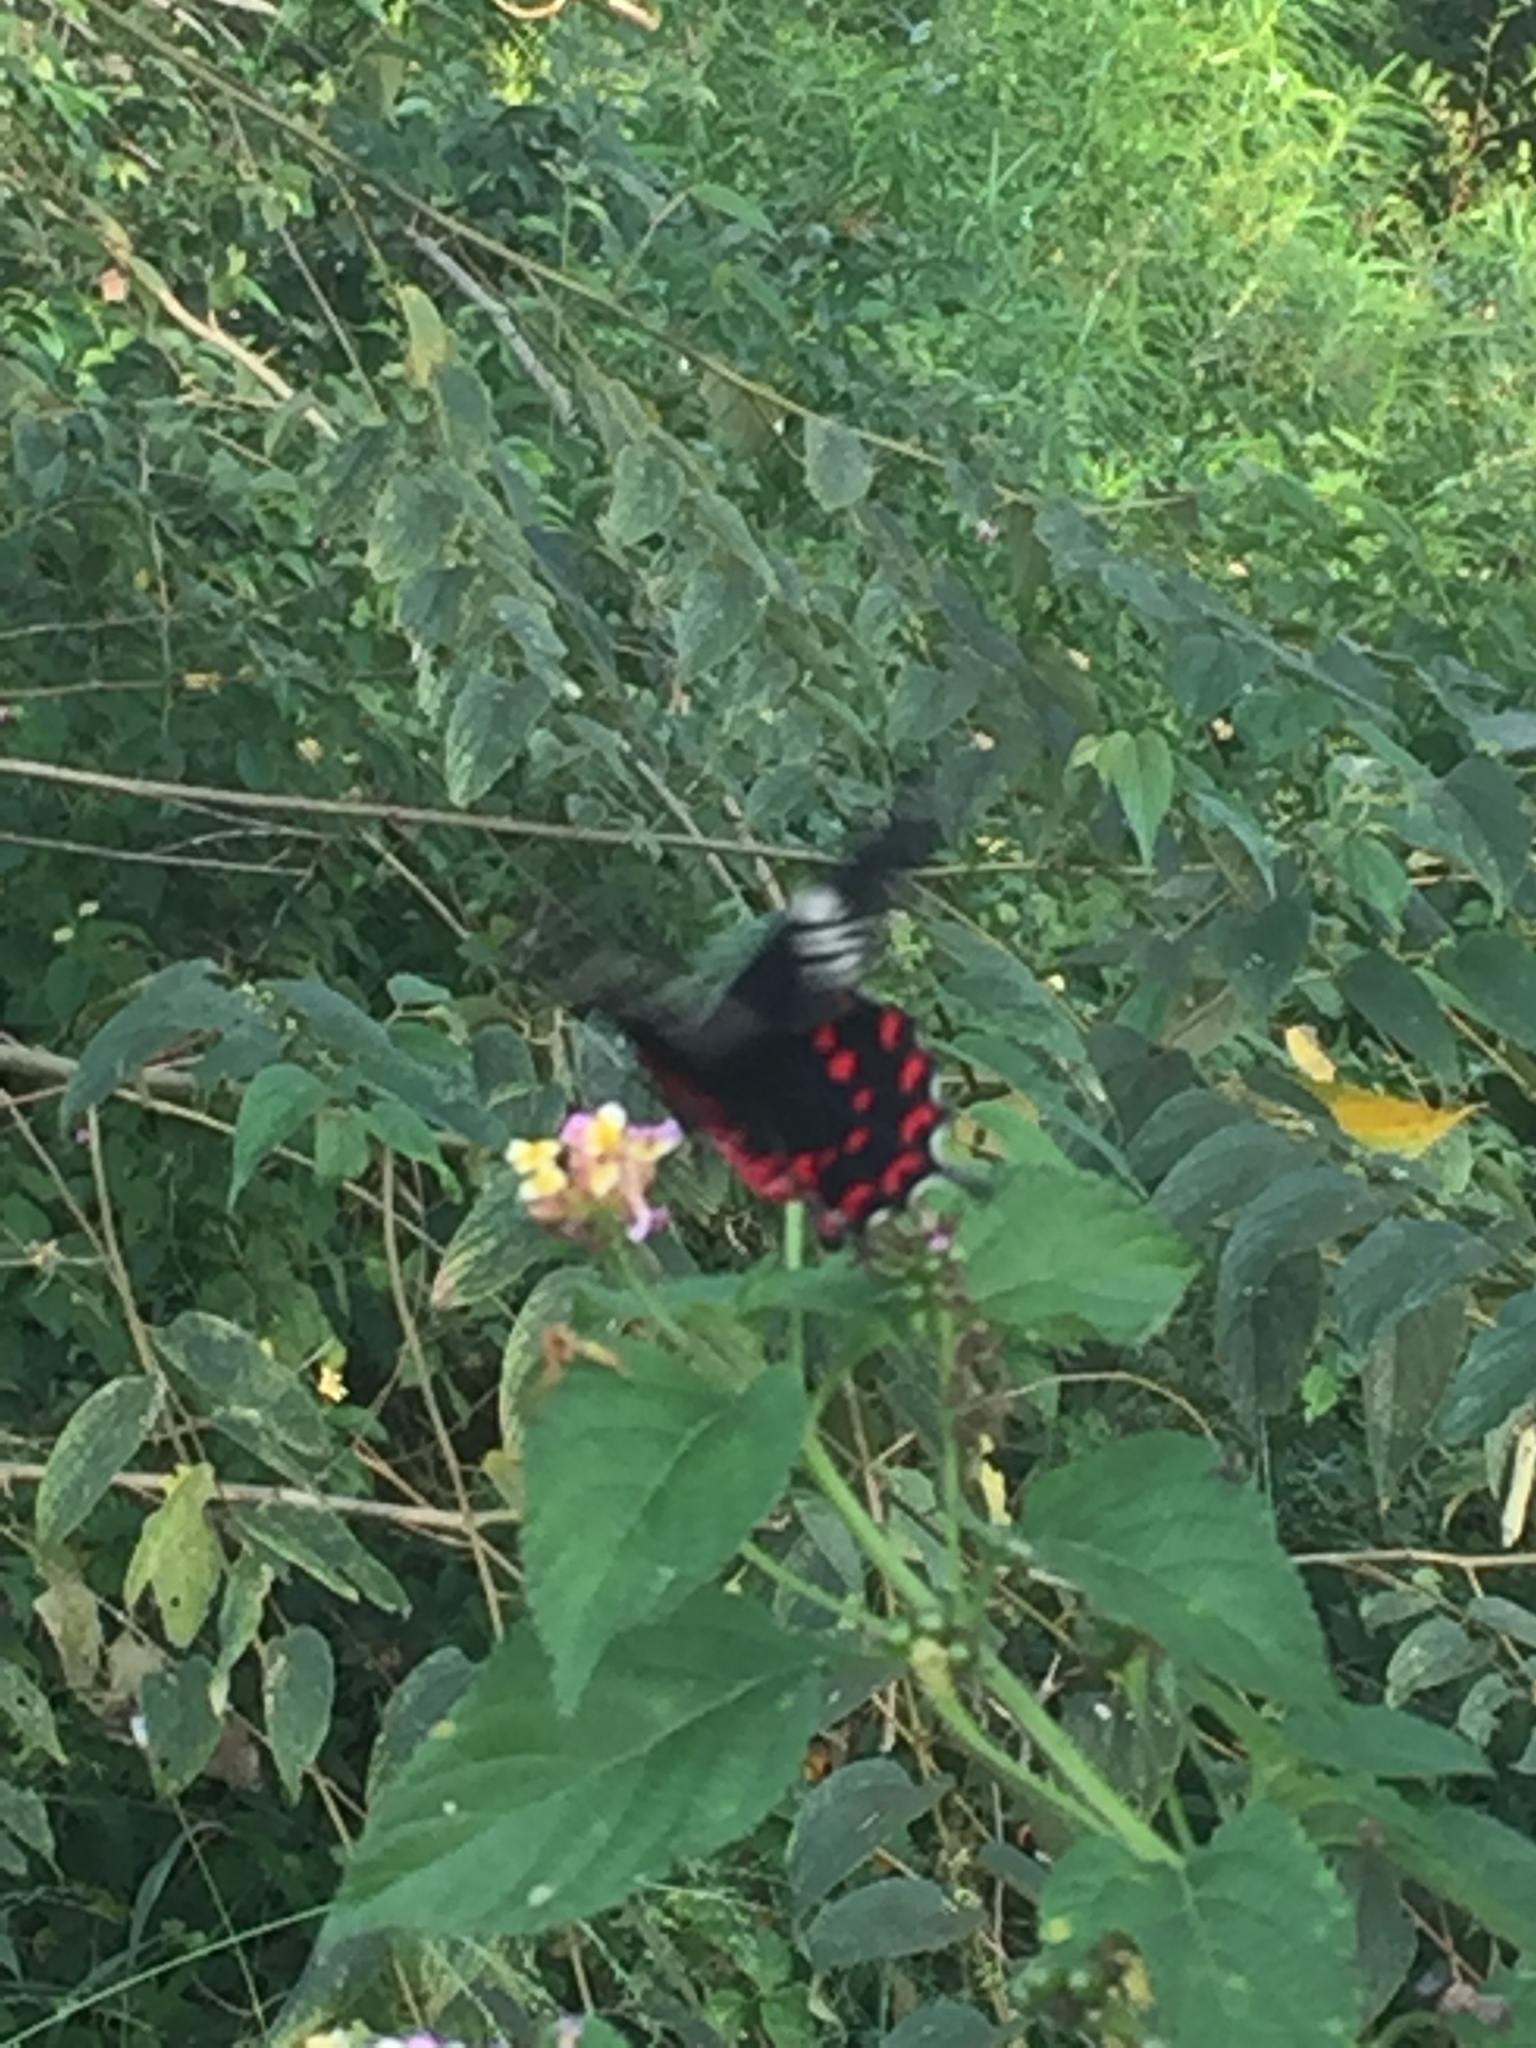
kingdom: Animalia
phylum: Arthropoda
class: Insecta
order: Lepidoptera
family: Papilionidae
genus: Pachliopta
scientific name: Pachliopta hector
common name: Crimson rose
